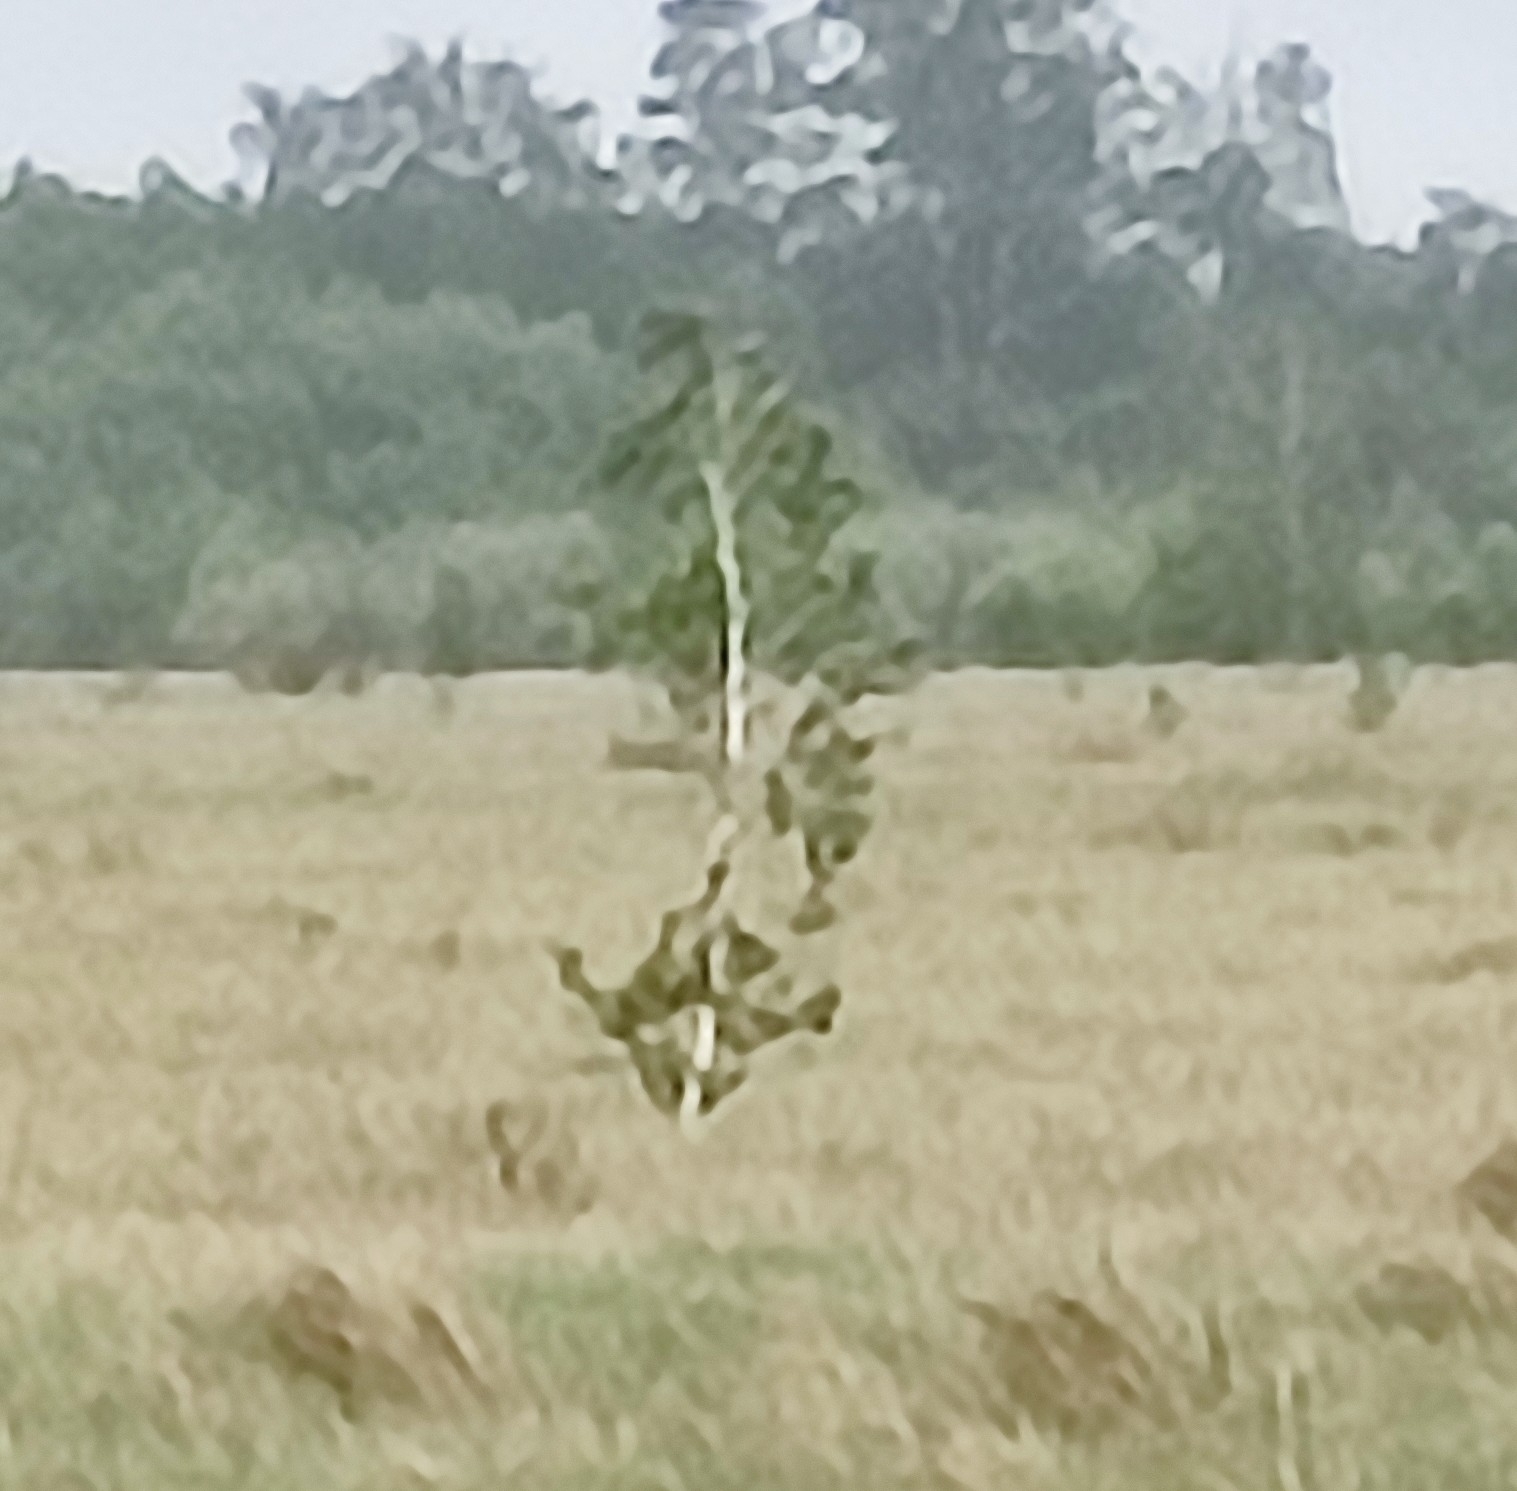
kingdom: Plantae
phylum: Tracheophyta
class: Magnoliopsida
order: Fagales
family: Betulaceae
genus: Betula
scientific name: Betula pendula
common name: Silver birch
